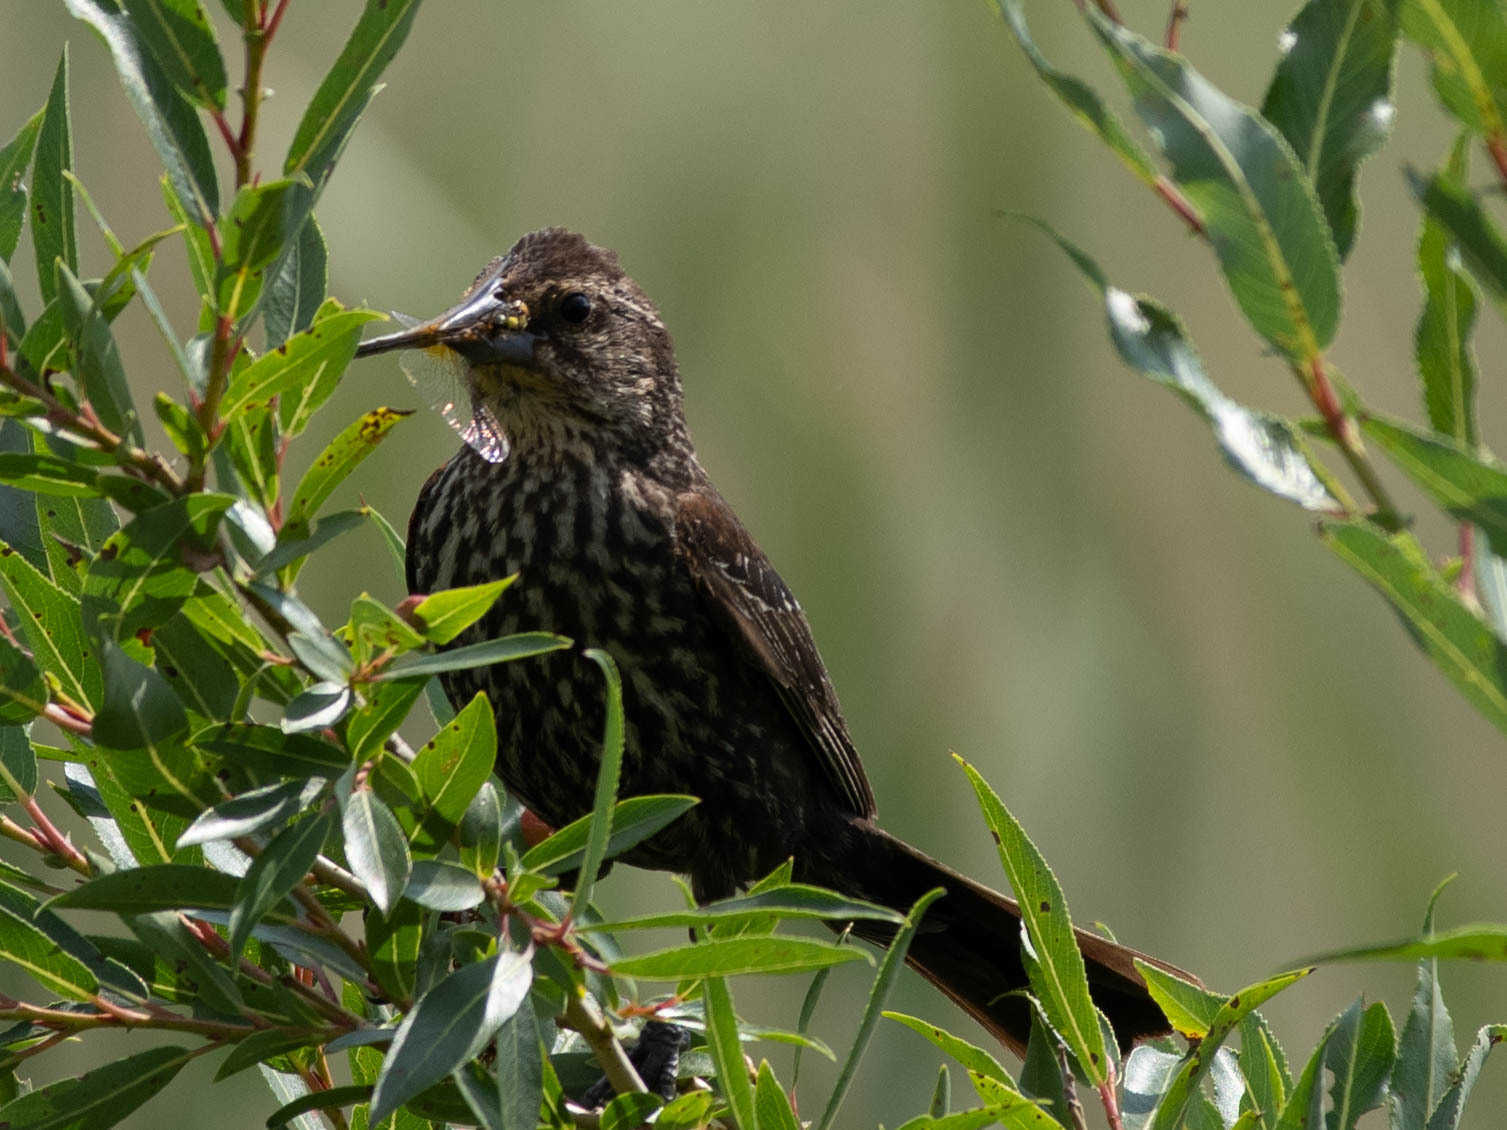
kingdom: Animalia
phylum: Chordata
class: Aves
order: Passeriformes
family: Icteridae
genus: Agelaius
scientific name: Agelaius phoeniceus
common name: Red-winged blackbird
